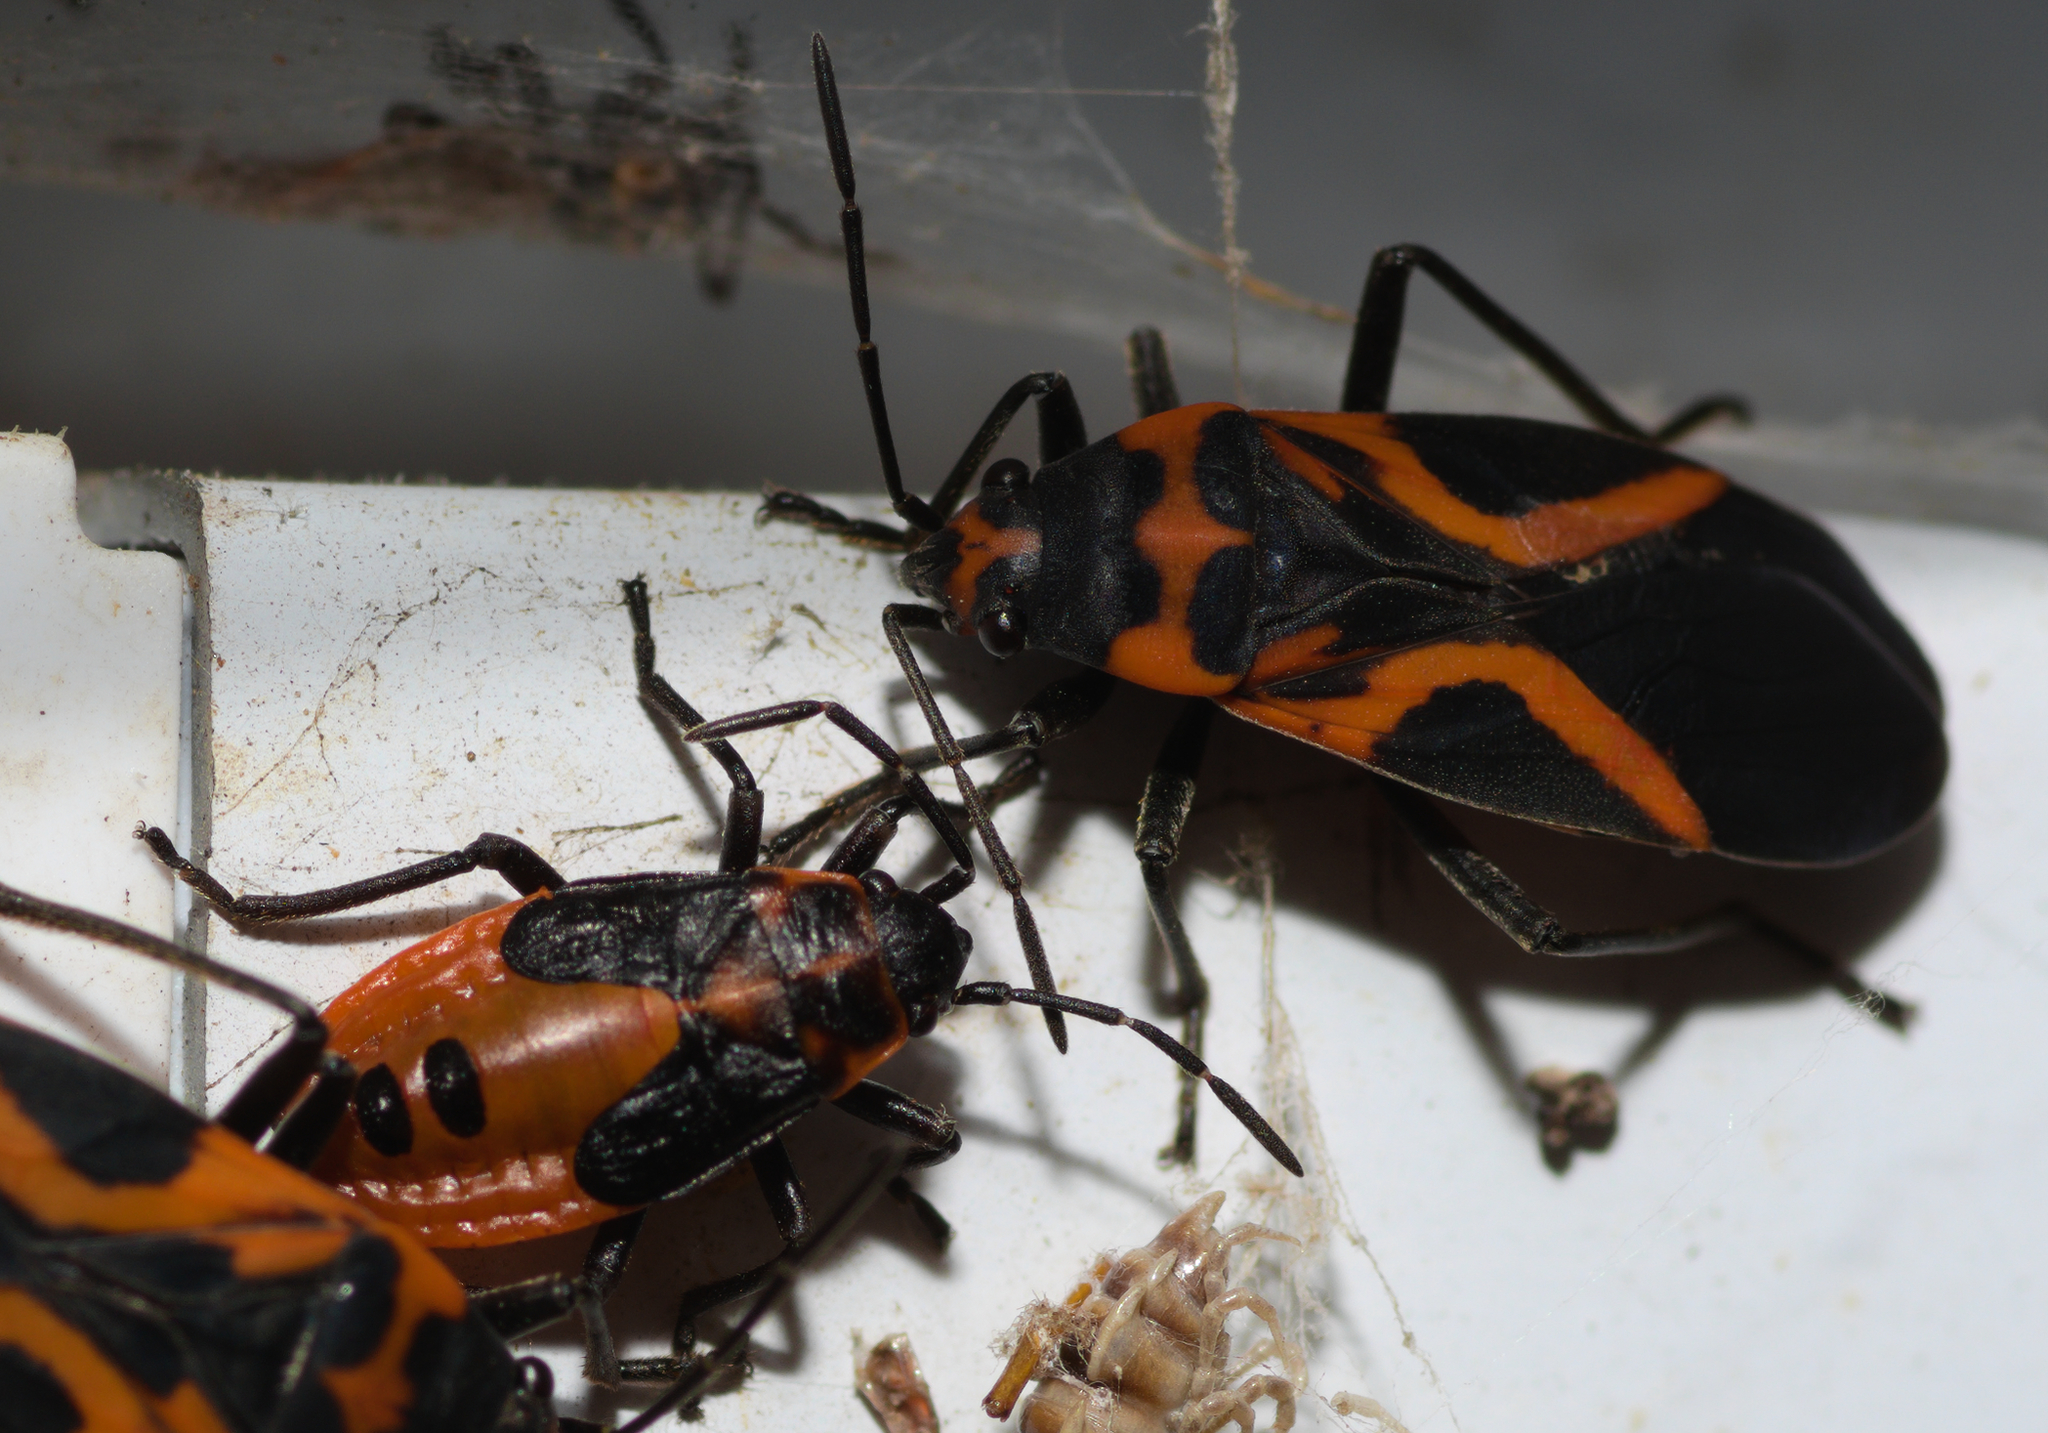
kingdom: Animalia
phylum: Arthropoda
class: Insecta
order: Hemiptera
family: Lygaeidae
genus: Lygaeus
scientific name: Lygaeus turcicus
